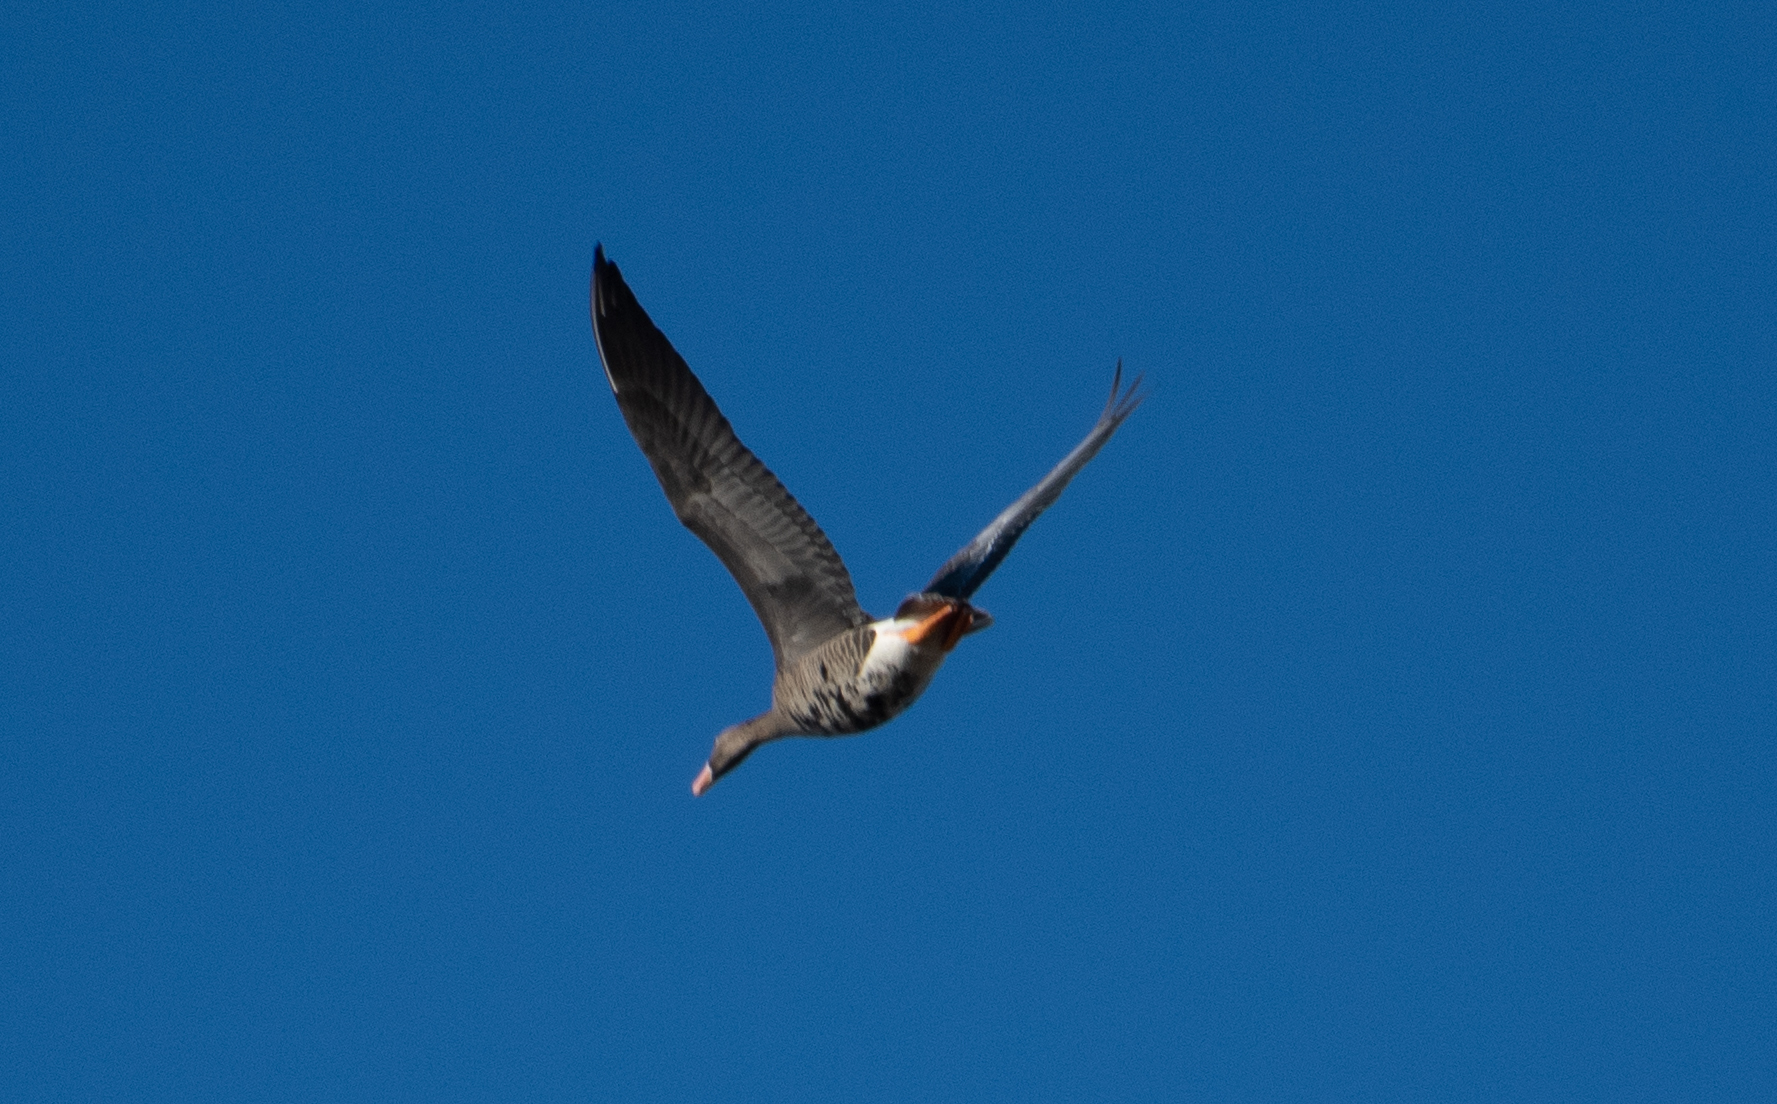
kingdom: Animalia
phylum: Chordata
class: Aves
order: Anseriformes
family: Anatidae
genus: Anser
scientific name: Anser albifrons
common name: Greater white-fronted goose
